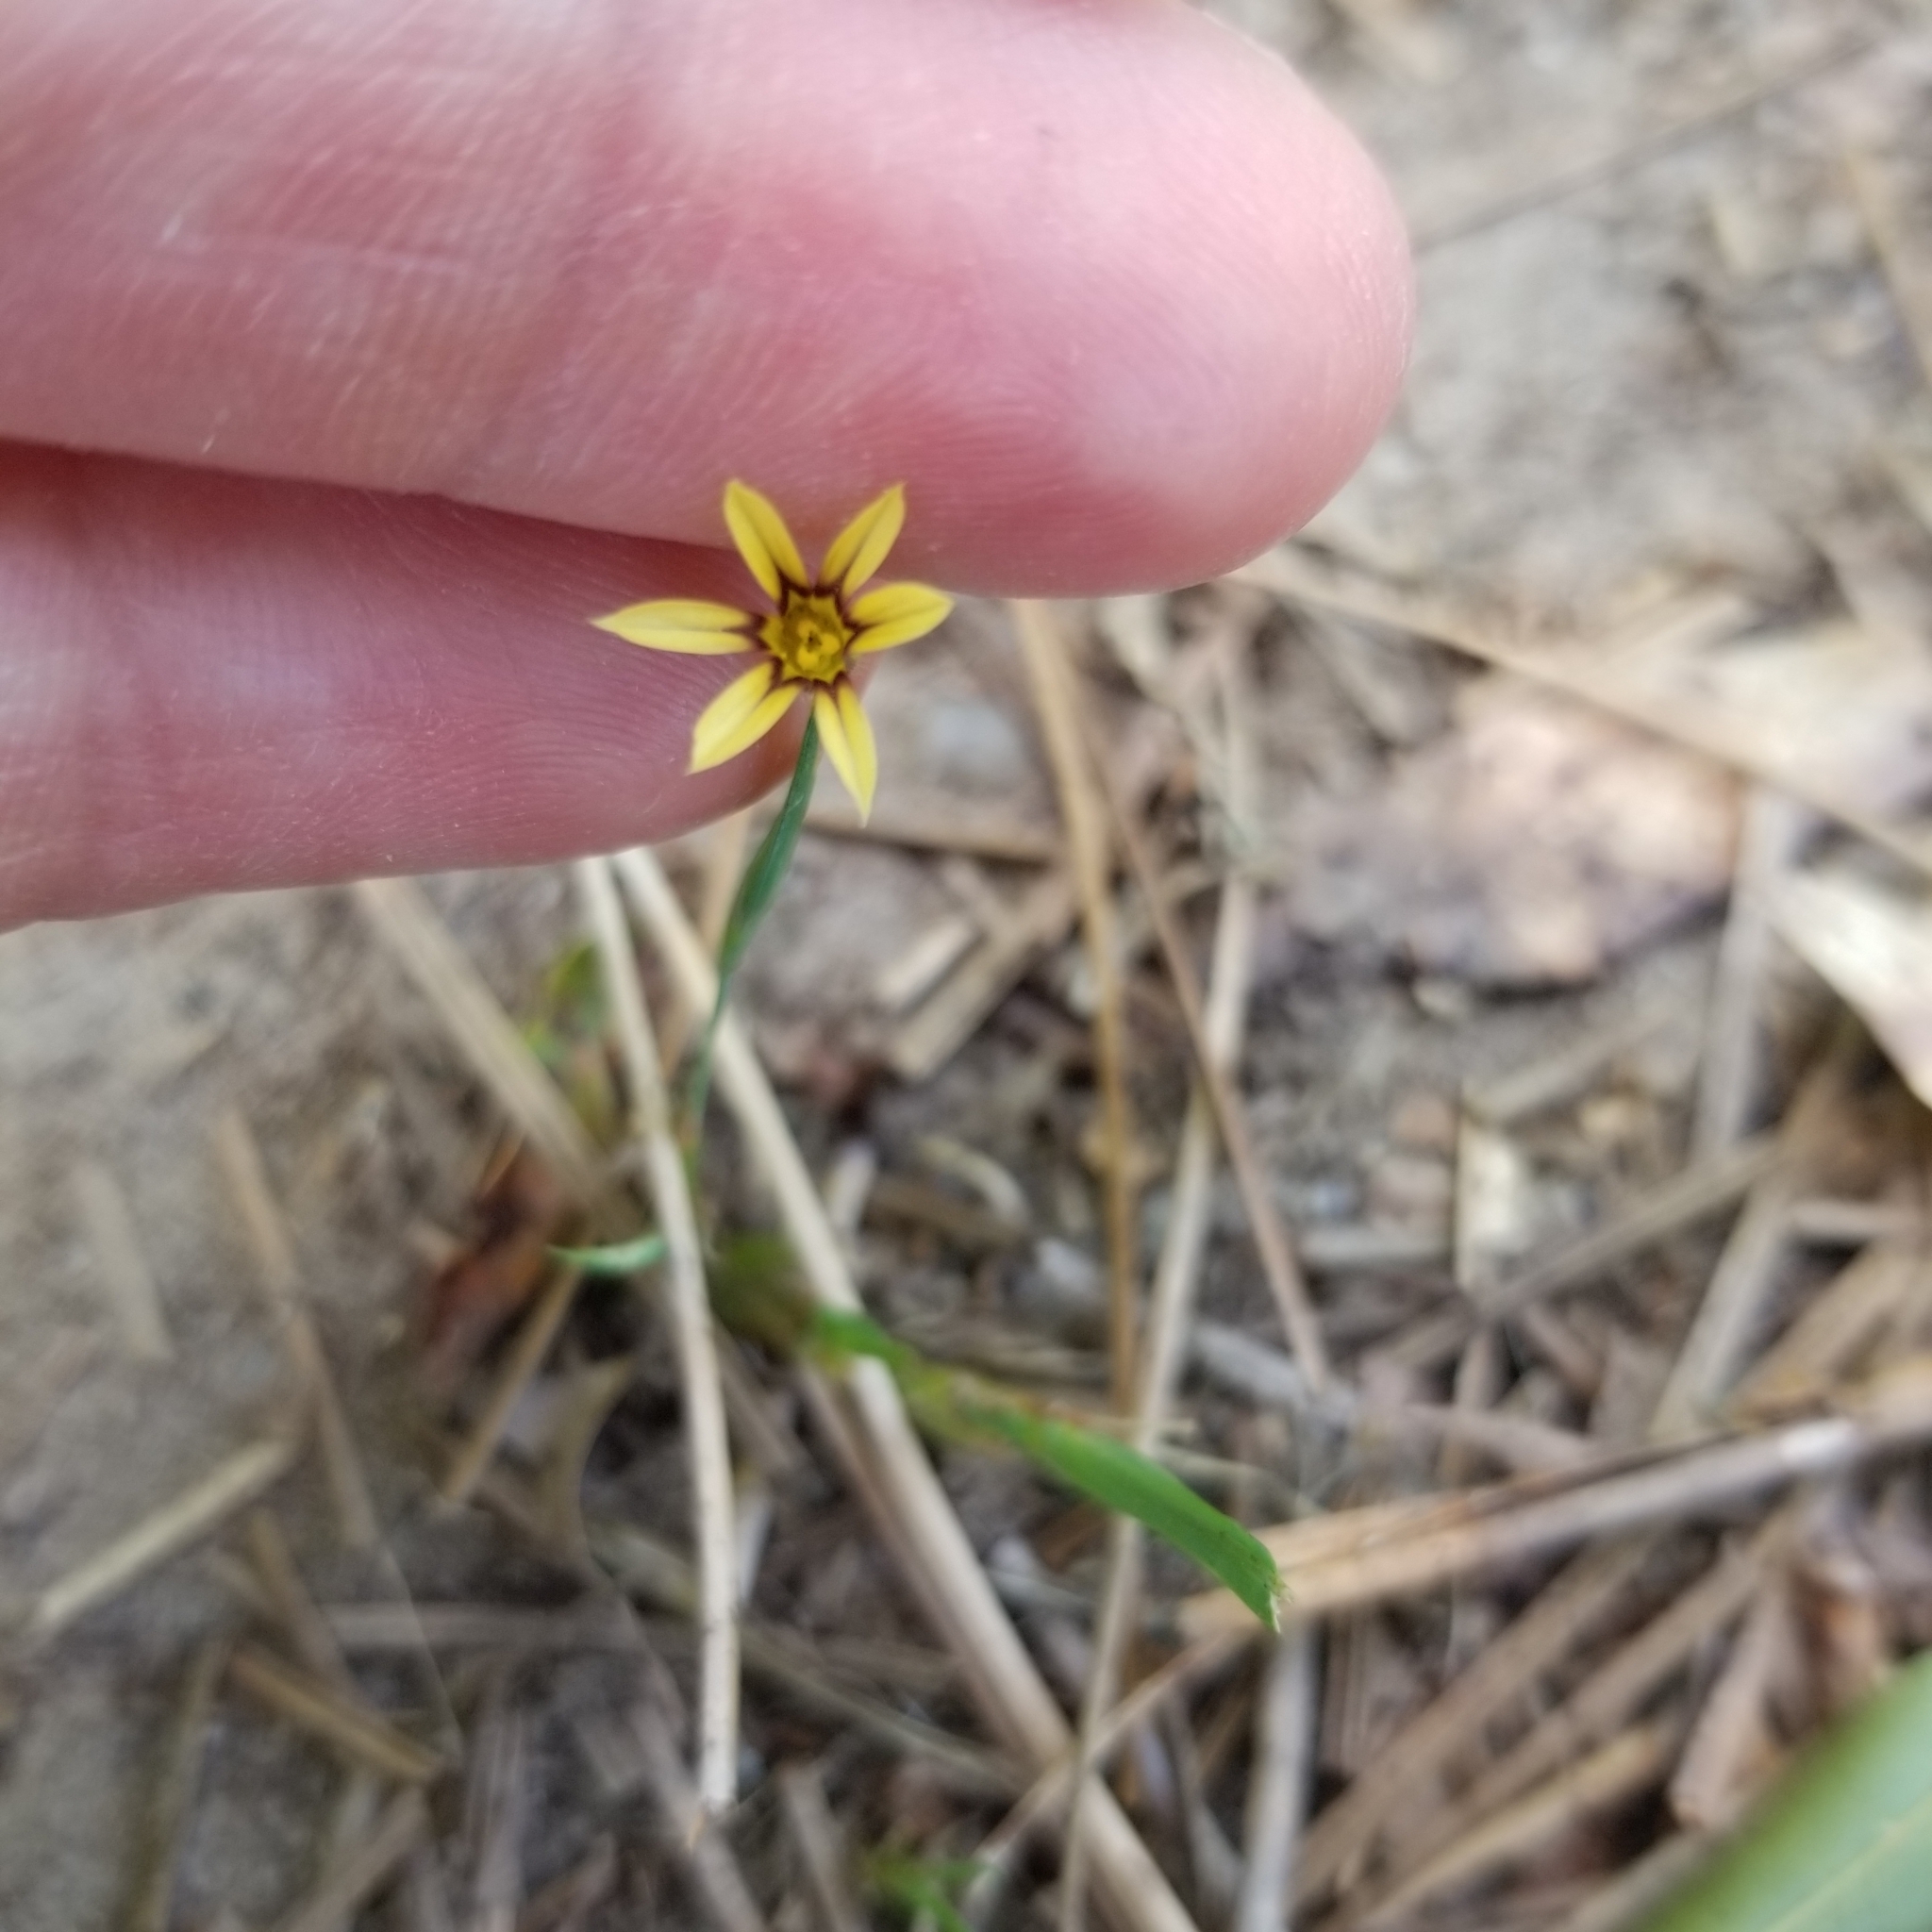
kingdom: Plantae
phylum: Tracheophyta
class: Liliopsida
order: Asparagales
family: Iridaceae
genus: Sisyrinchium
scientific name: Sisyrinchium micranthum
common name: Bermuda pigroot
